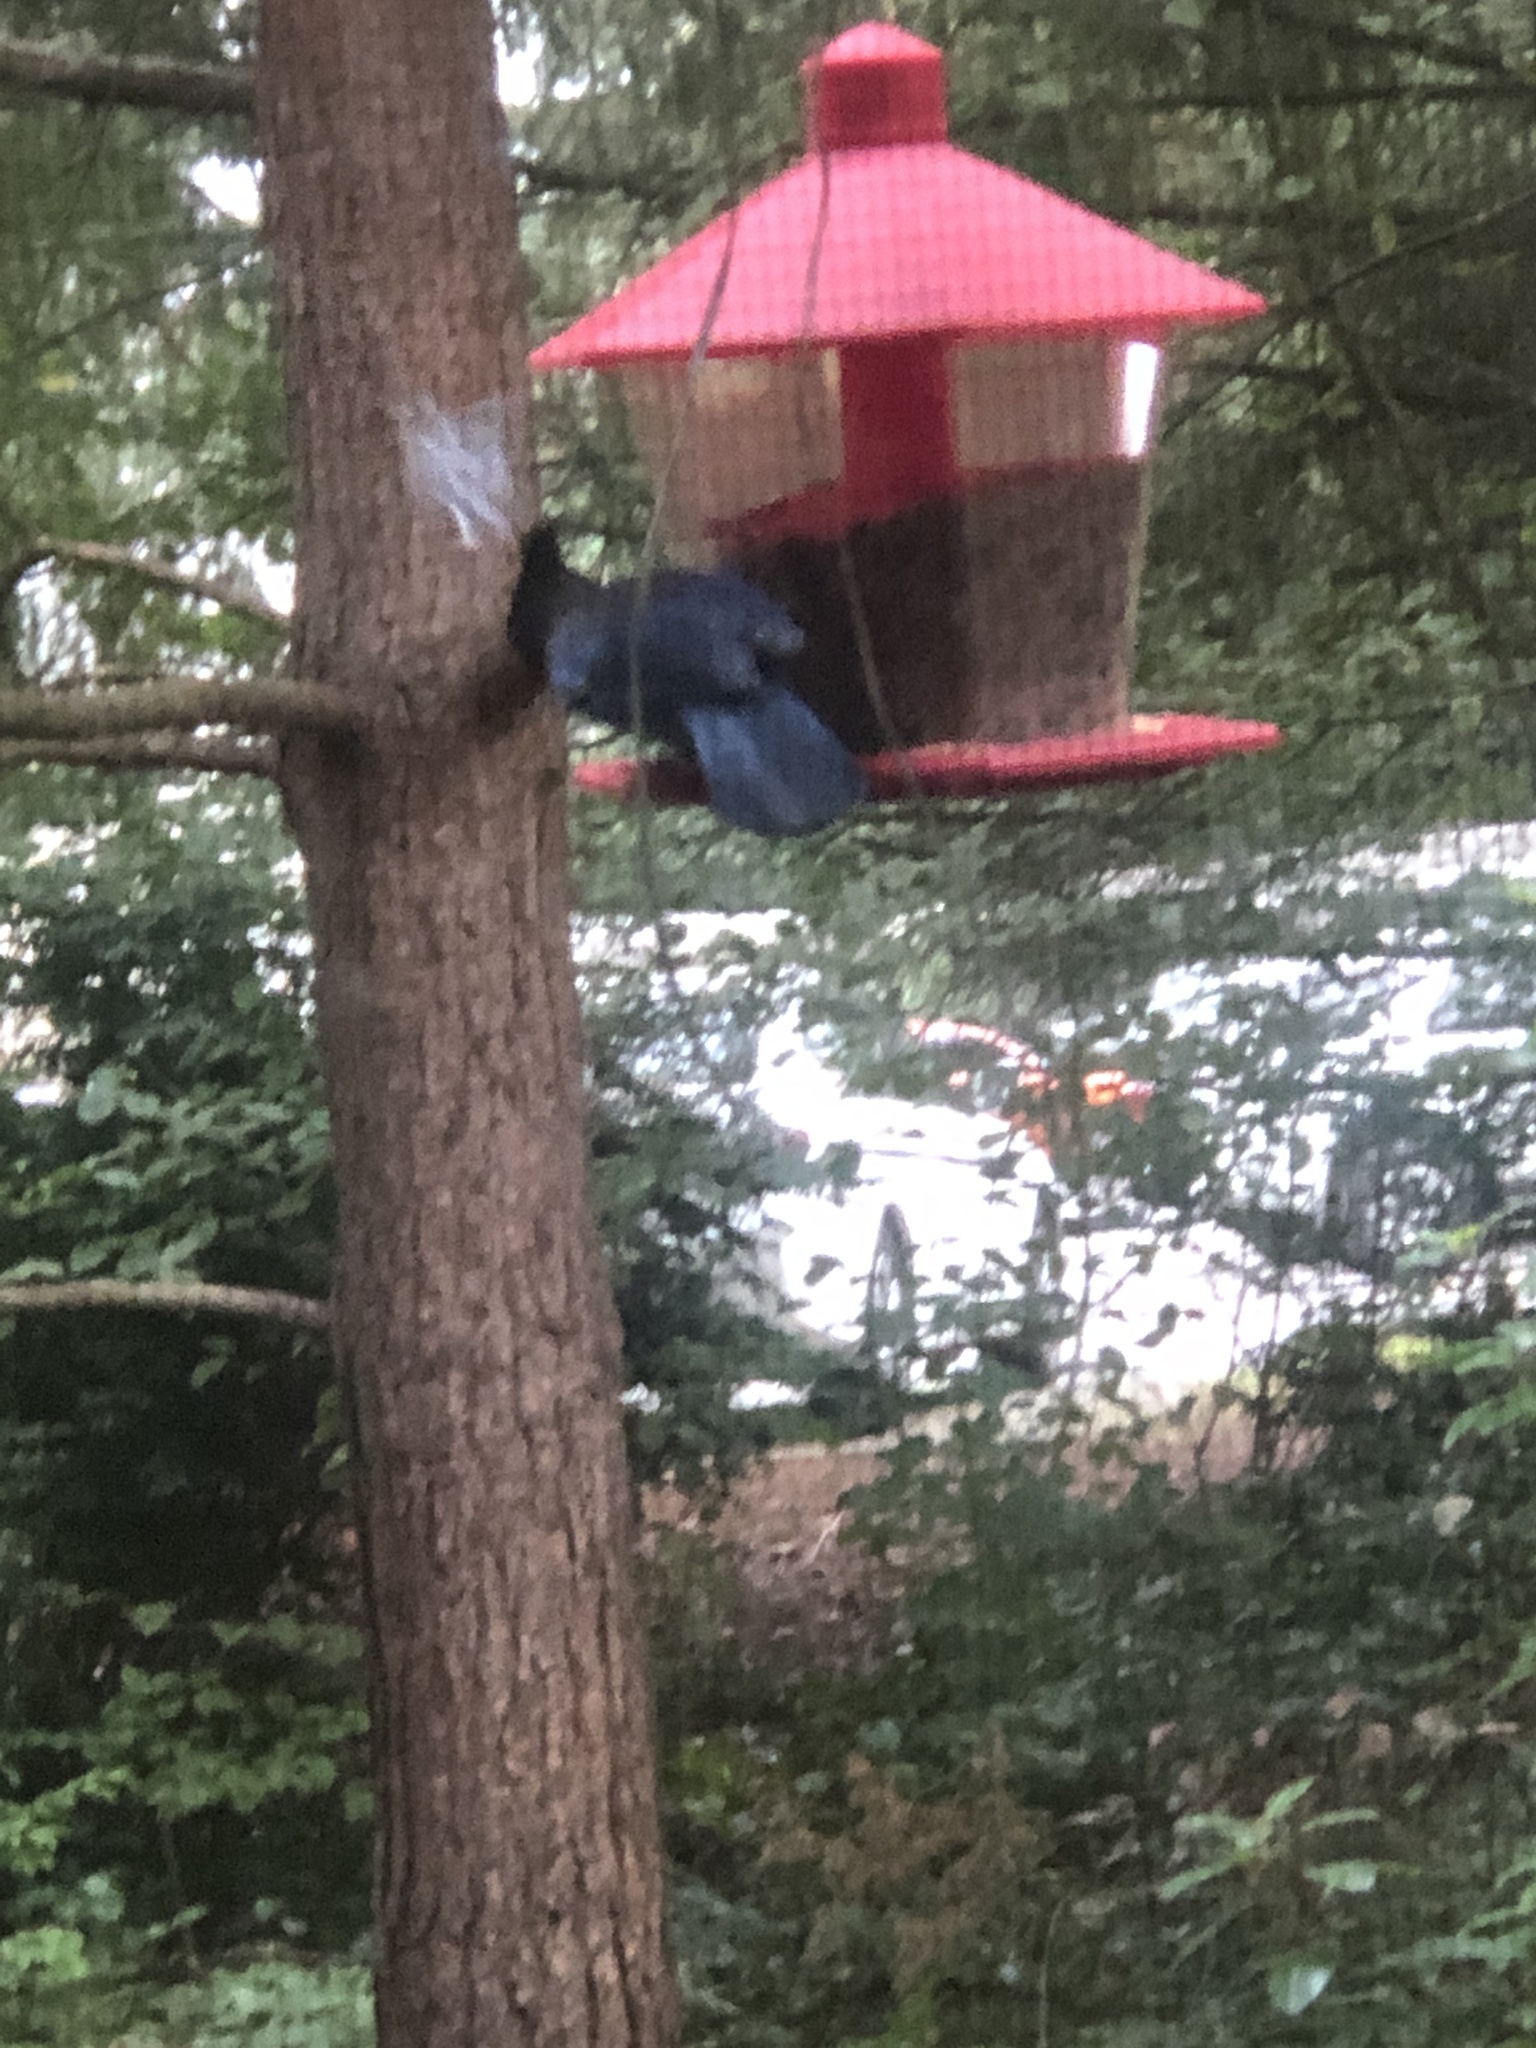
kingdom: Animalia
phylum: Chordata
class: Aves
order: Passeriformes
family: Corvidae
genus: Cyanocitta
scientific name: Cyanocitta stelleri
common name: Steller's jay
